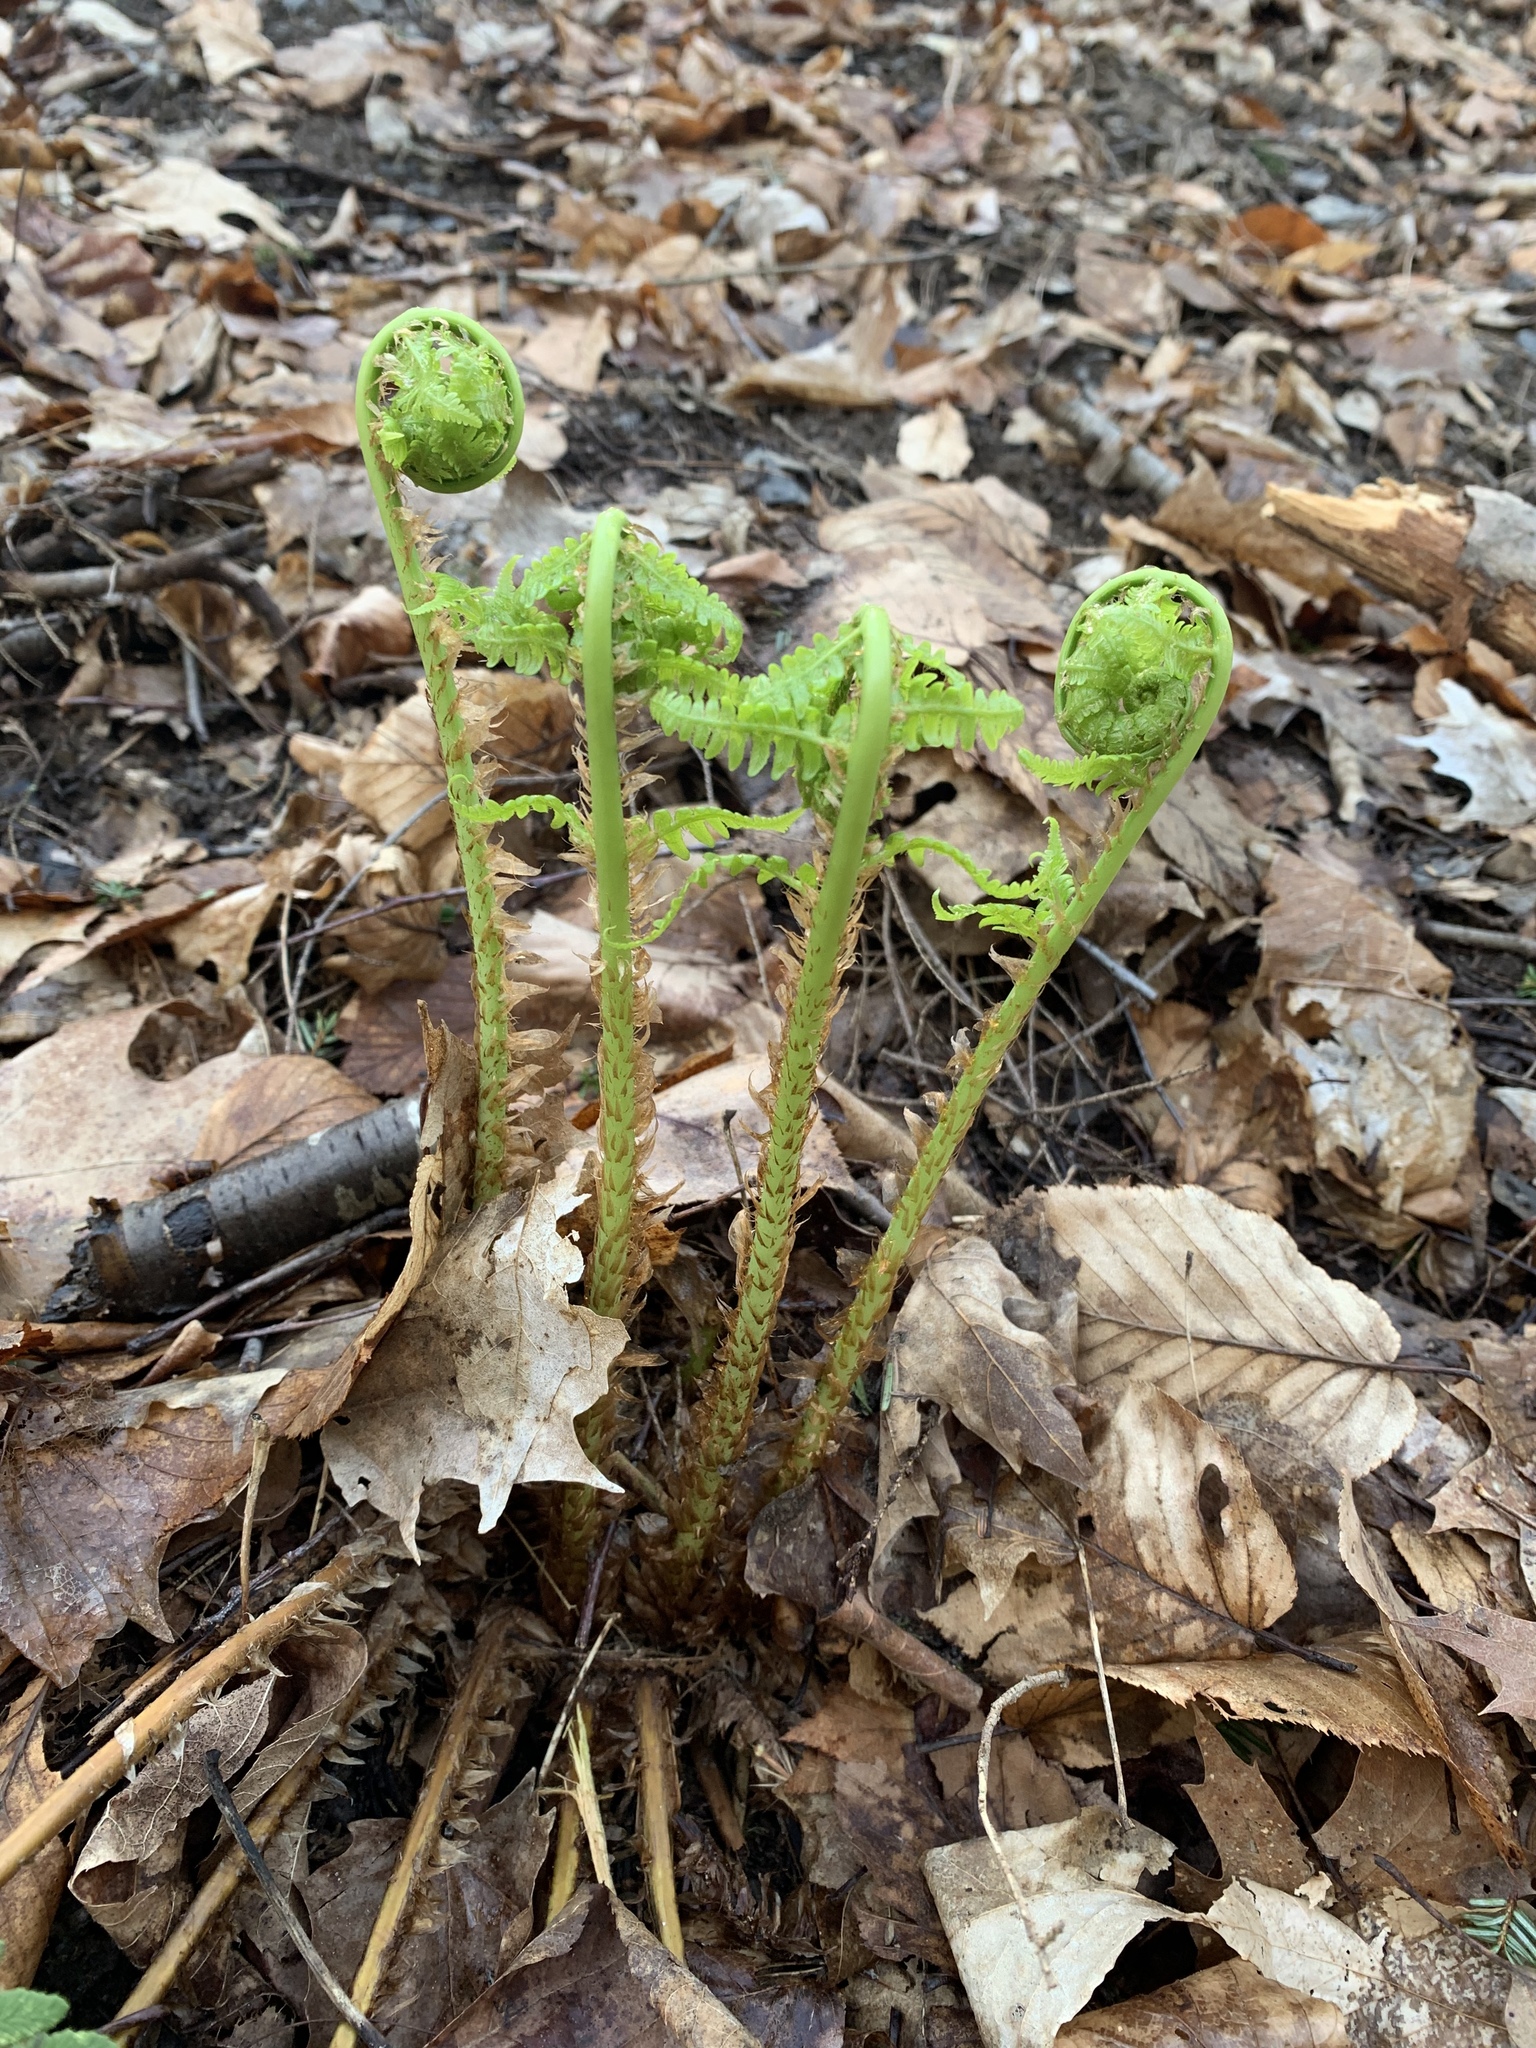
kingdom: Plantae
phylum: Tracheophyta
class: Polypodiopsida
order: Polypodiales
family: Dryopteridaceae
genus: Dryopteris
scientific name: Dryopteris marginalis
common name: Marginal wood fern
